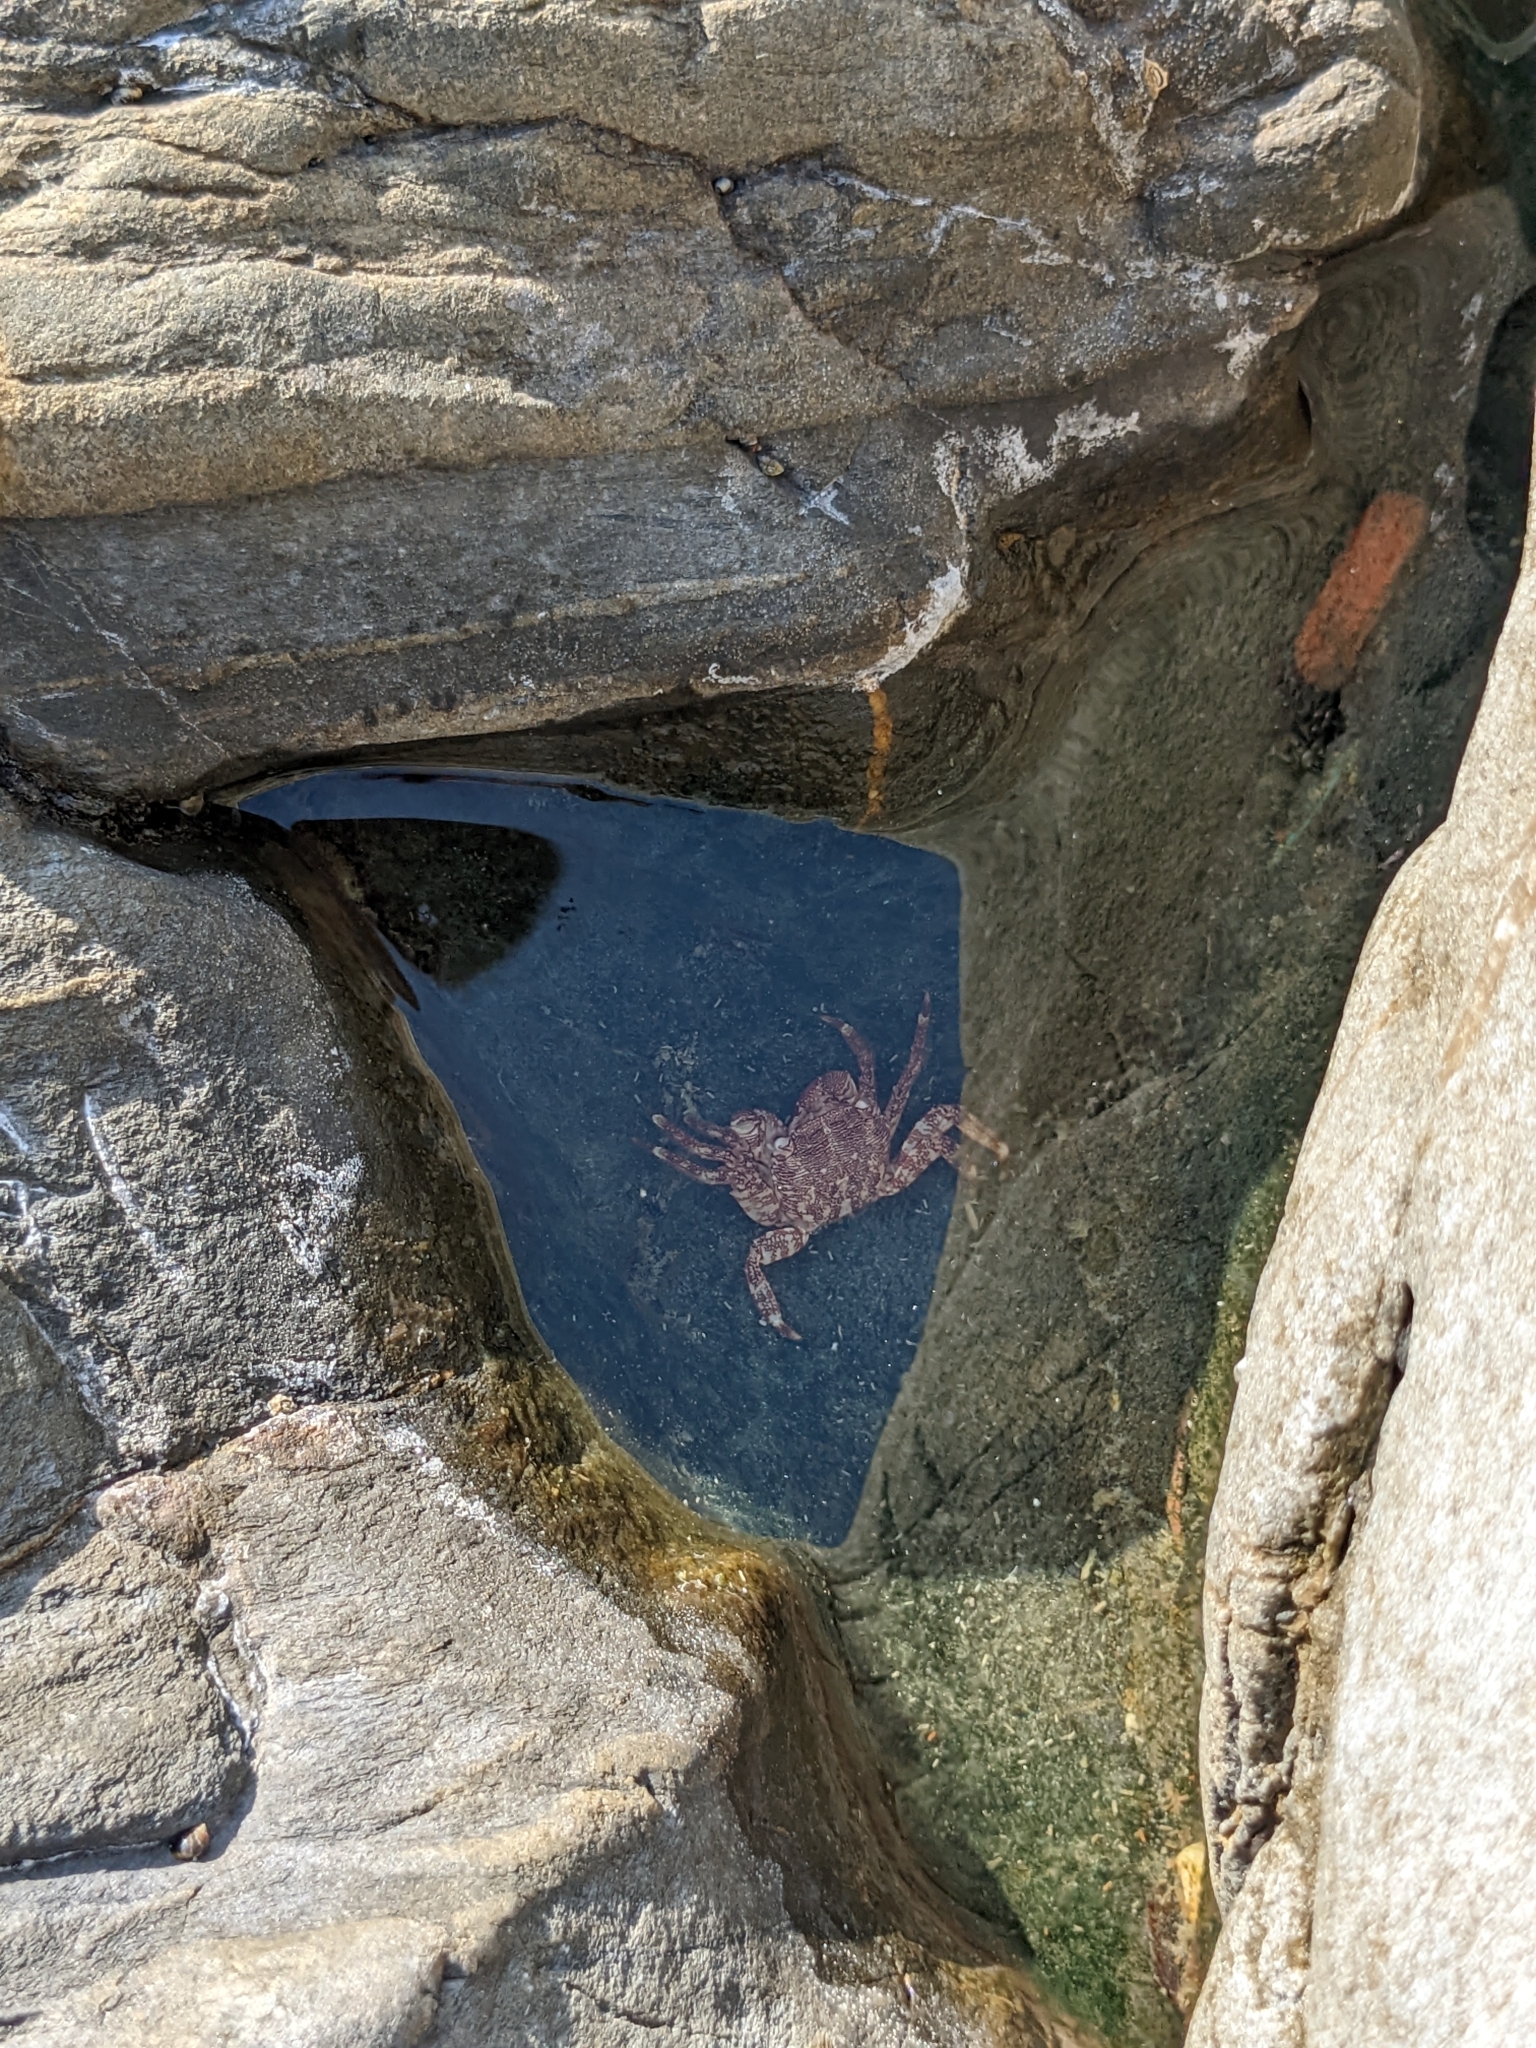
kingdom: Animalia
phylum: Arthropoda
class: Malacostraca
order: Decapoda
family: Grapsidae
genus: Pachygrapsus
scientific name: Pachygrapsus marmoratus
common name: Marbled rock crab
